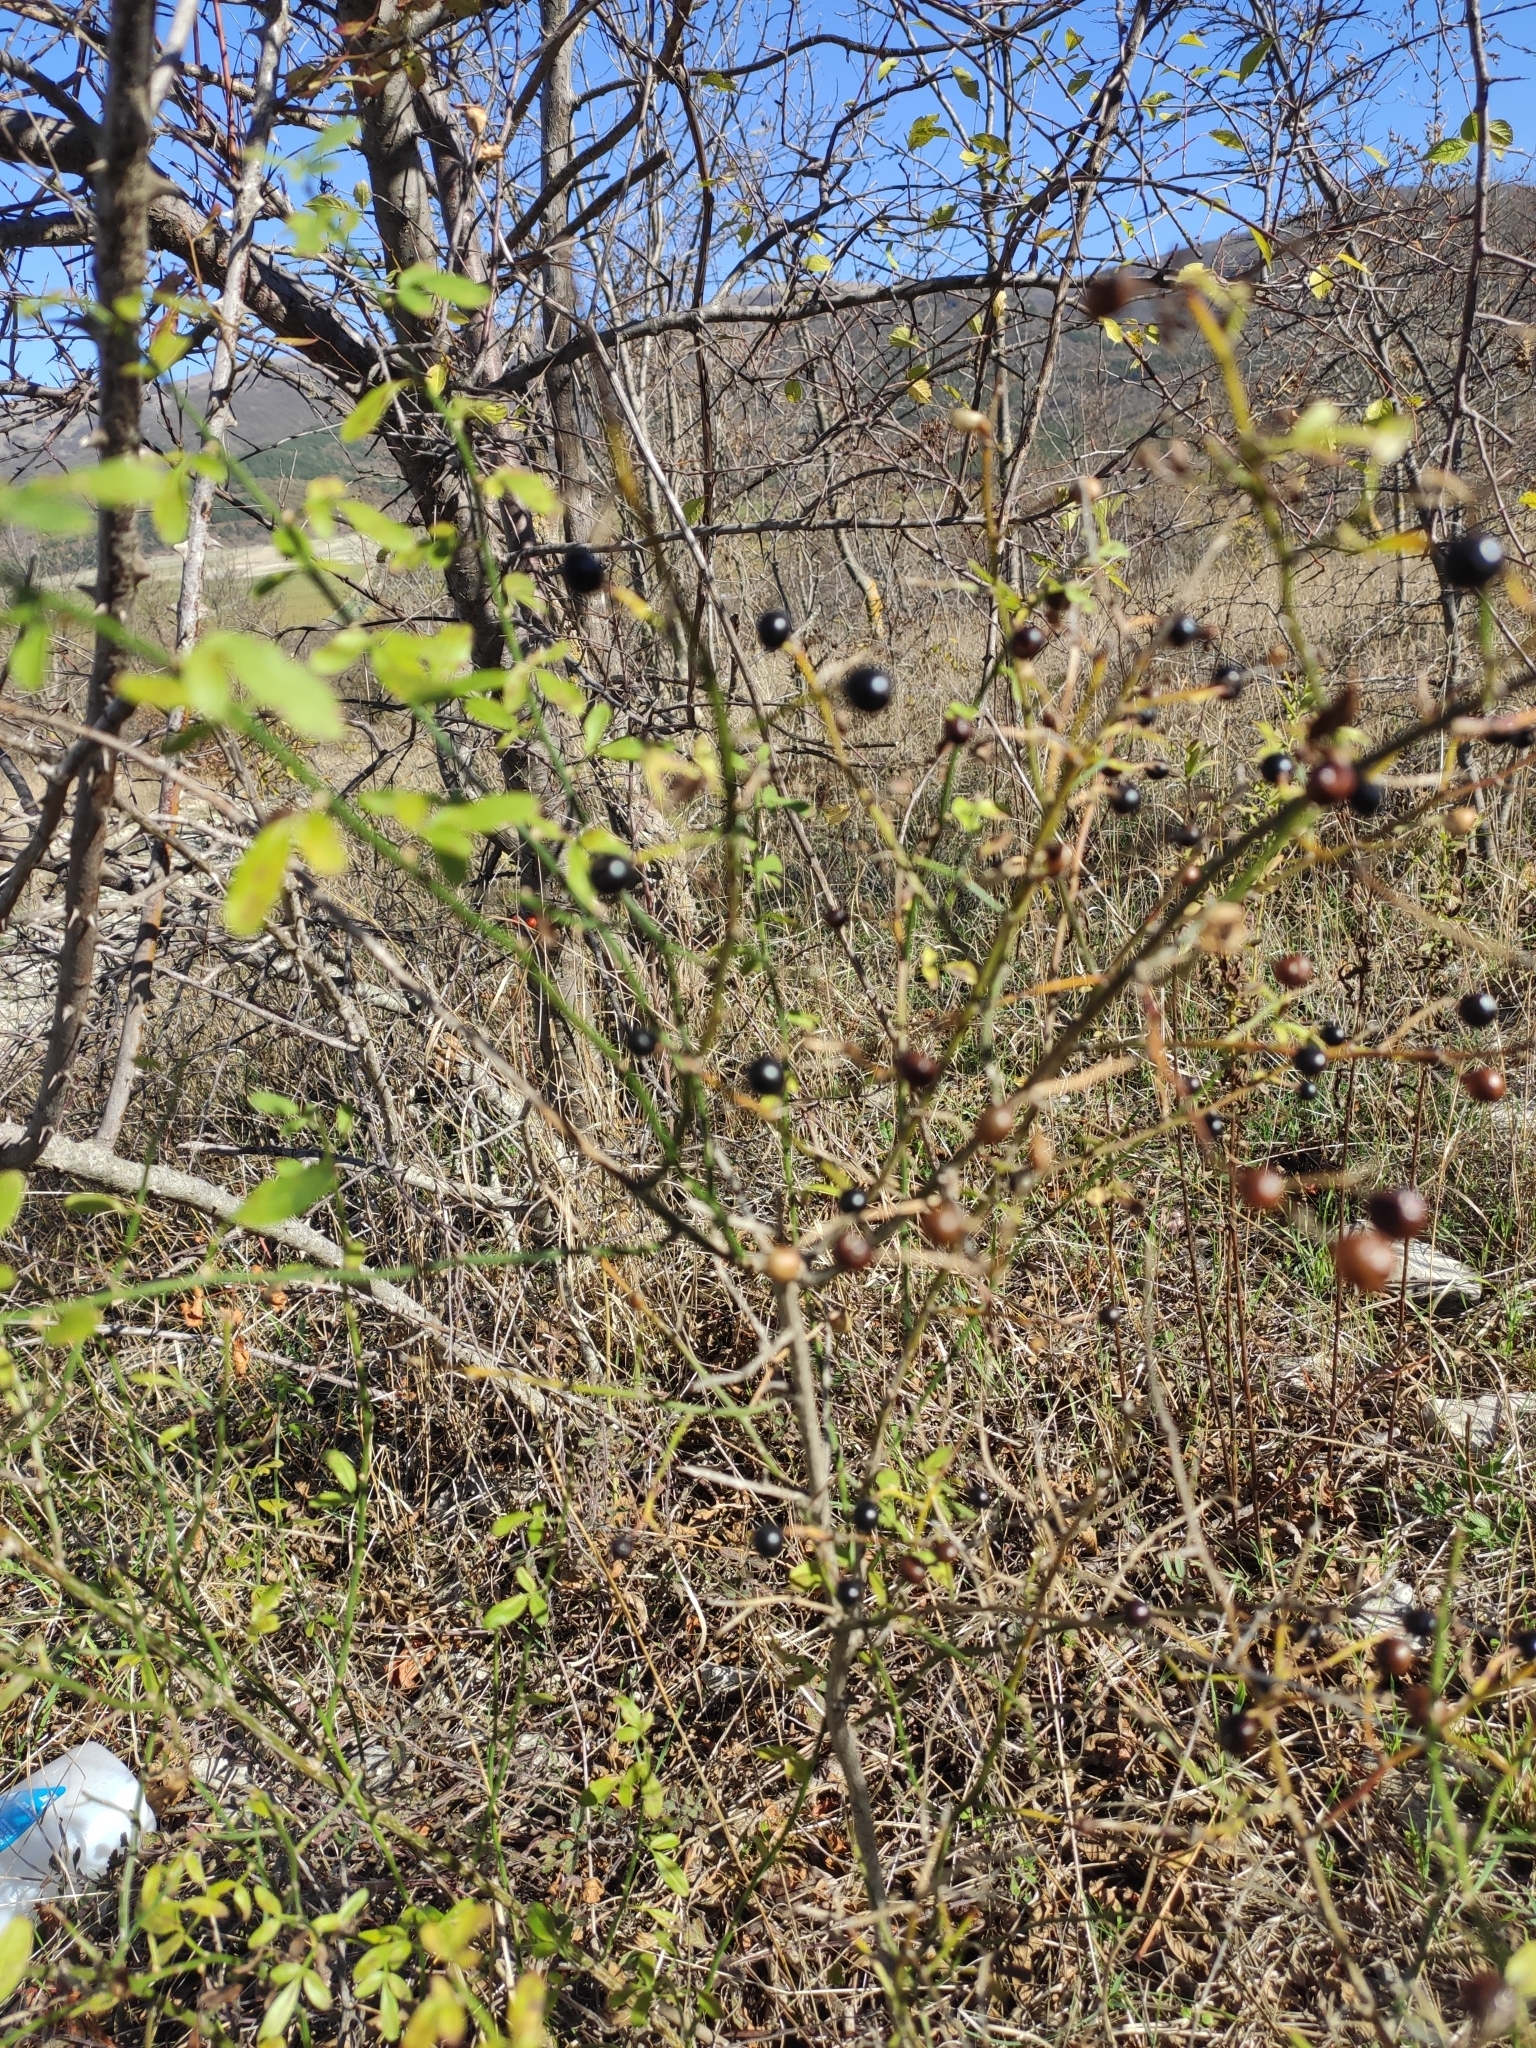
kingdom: Plantae
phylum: Tracheophyta
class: Magnoliopsida
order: Lamiales
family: Oleaceae
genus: Chrysojasminum
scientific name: Chrysojasminum fruticans
